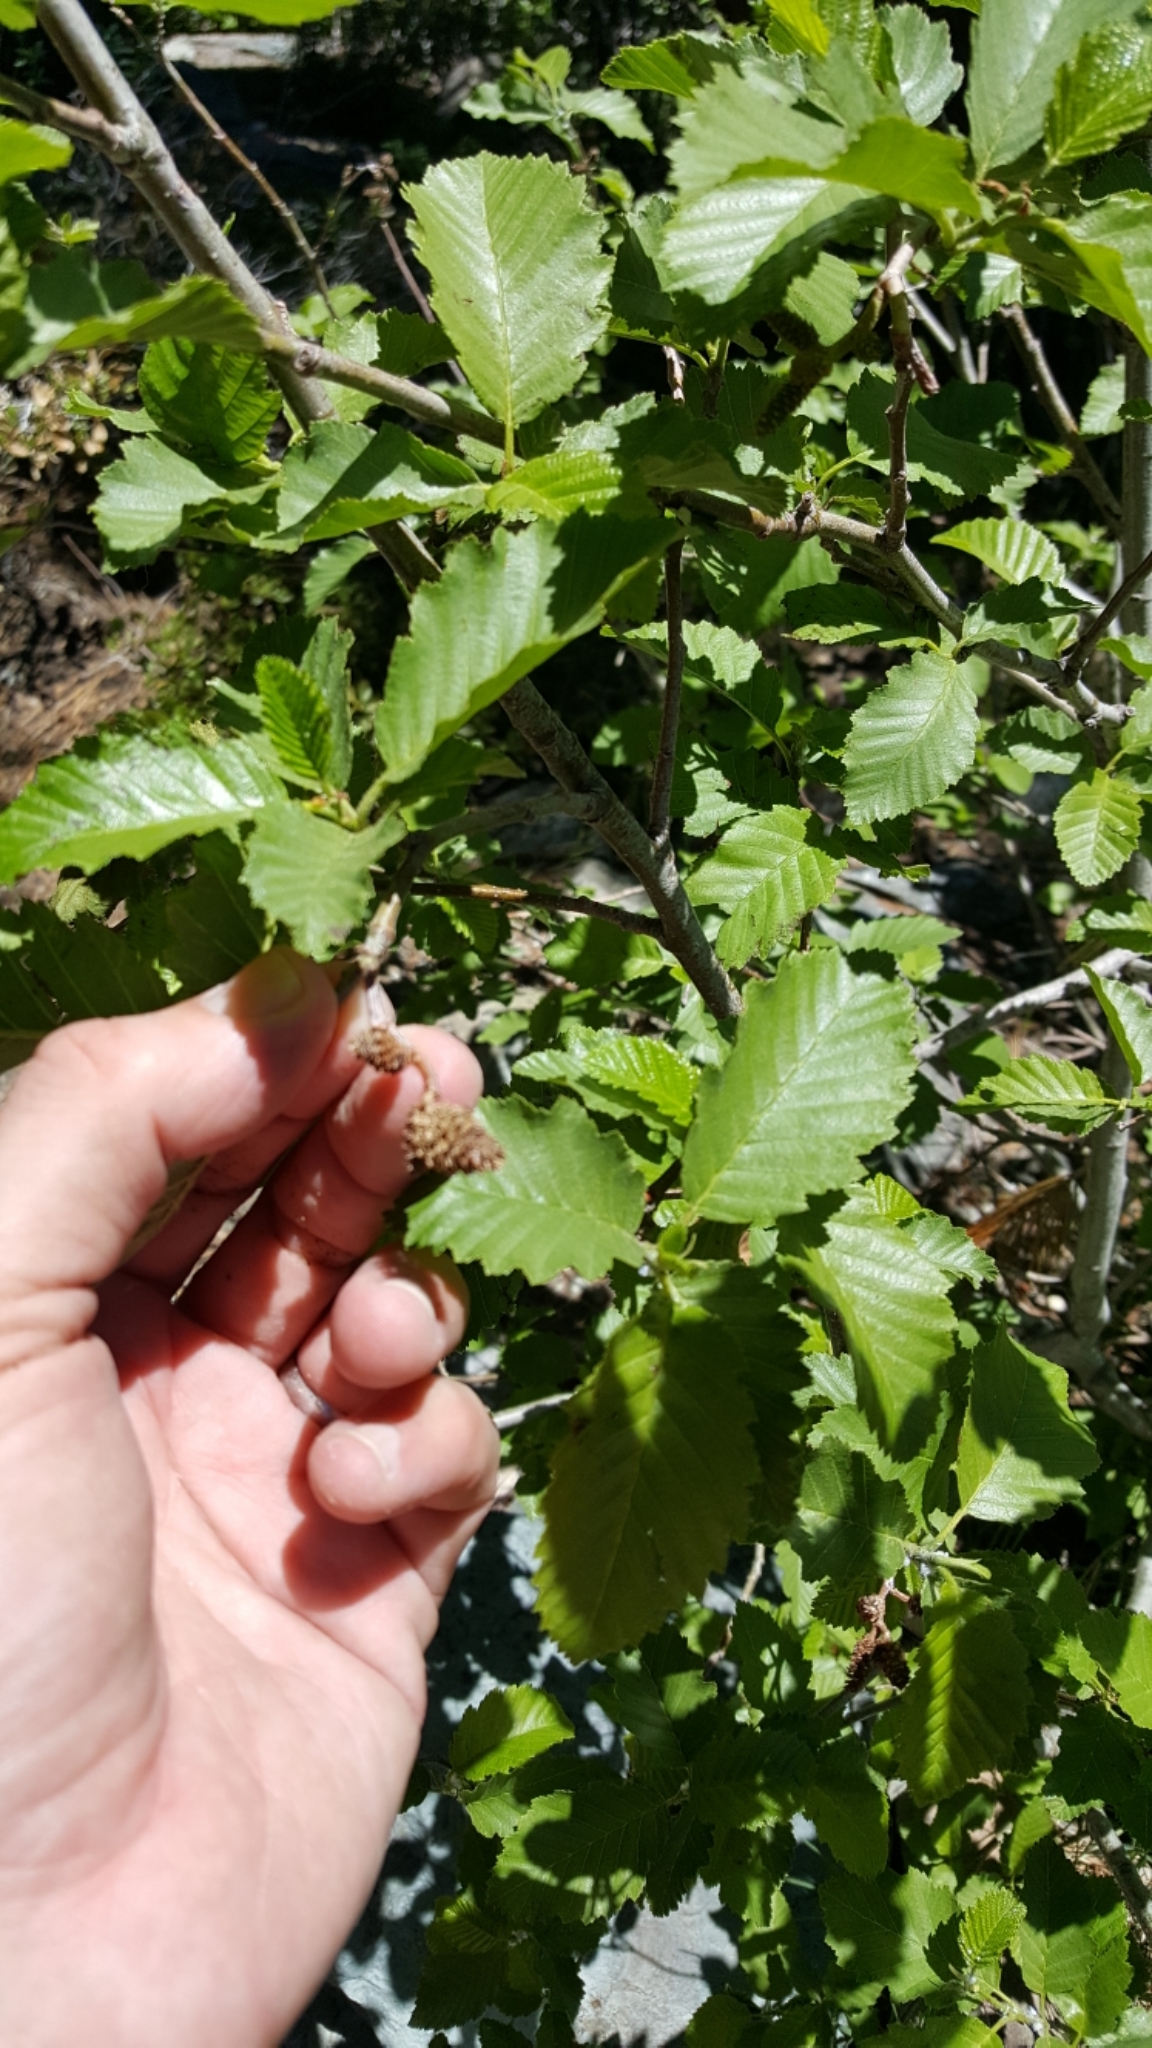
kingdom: Plantae
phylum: Tracheophyta
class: Magnoliopsida
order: Fagales
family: Betulaceae
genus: Alnus
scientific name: Alnus incana
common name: Grey alder
